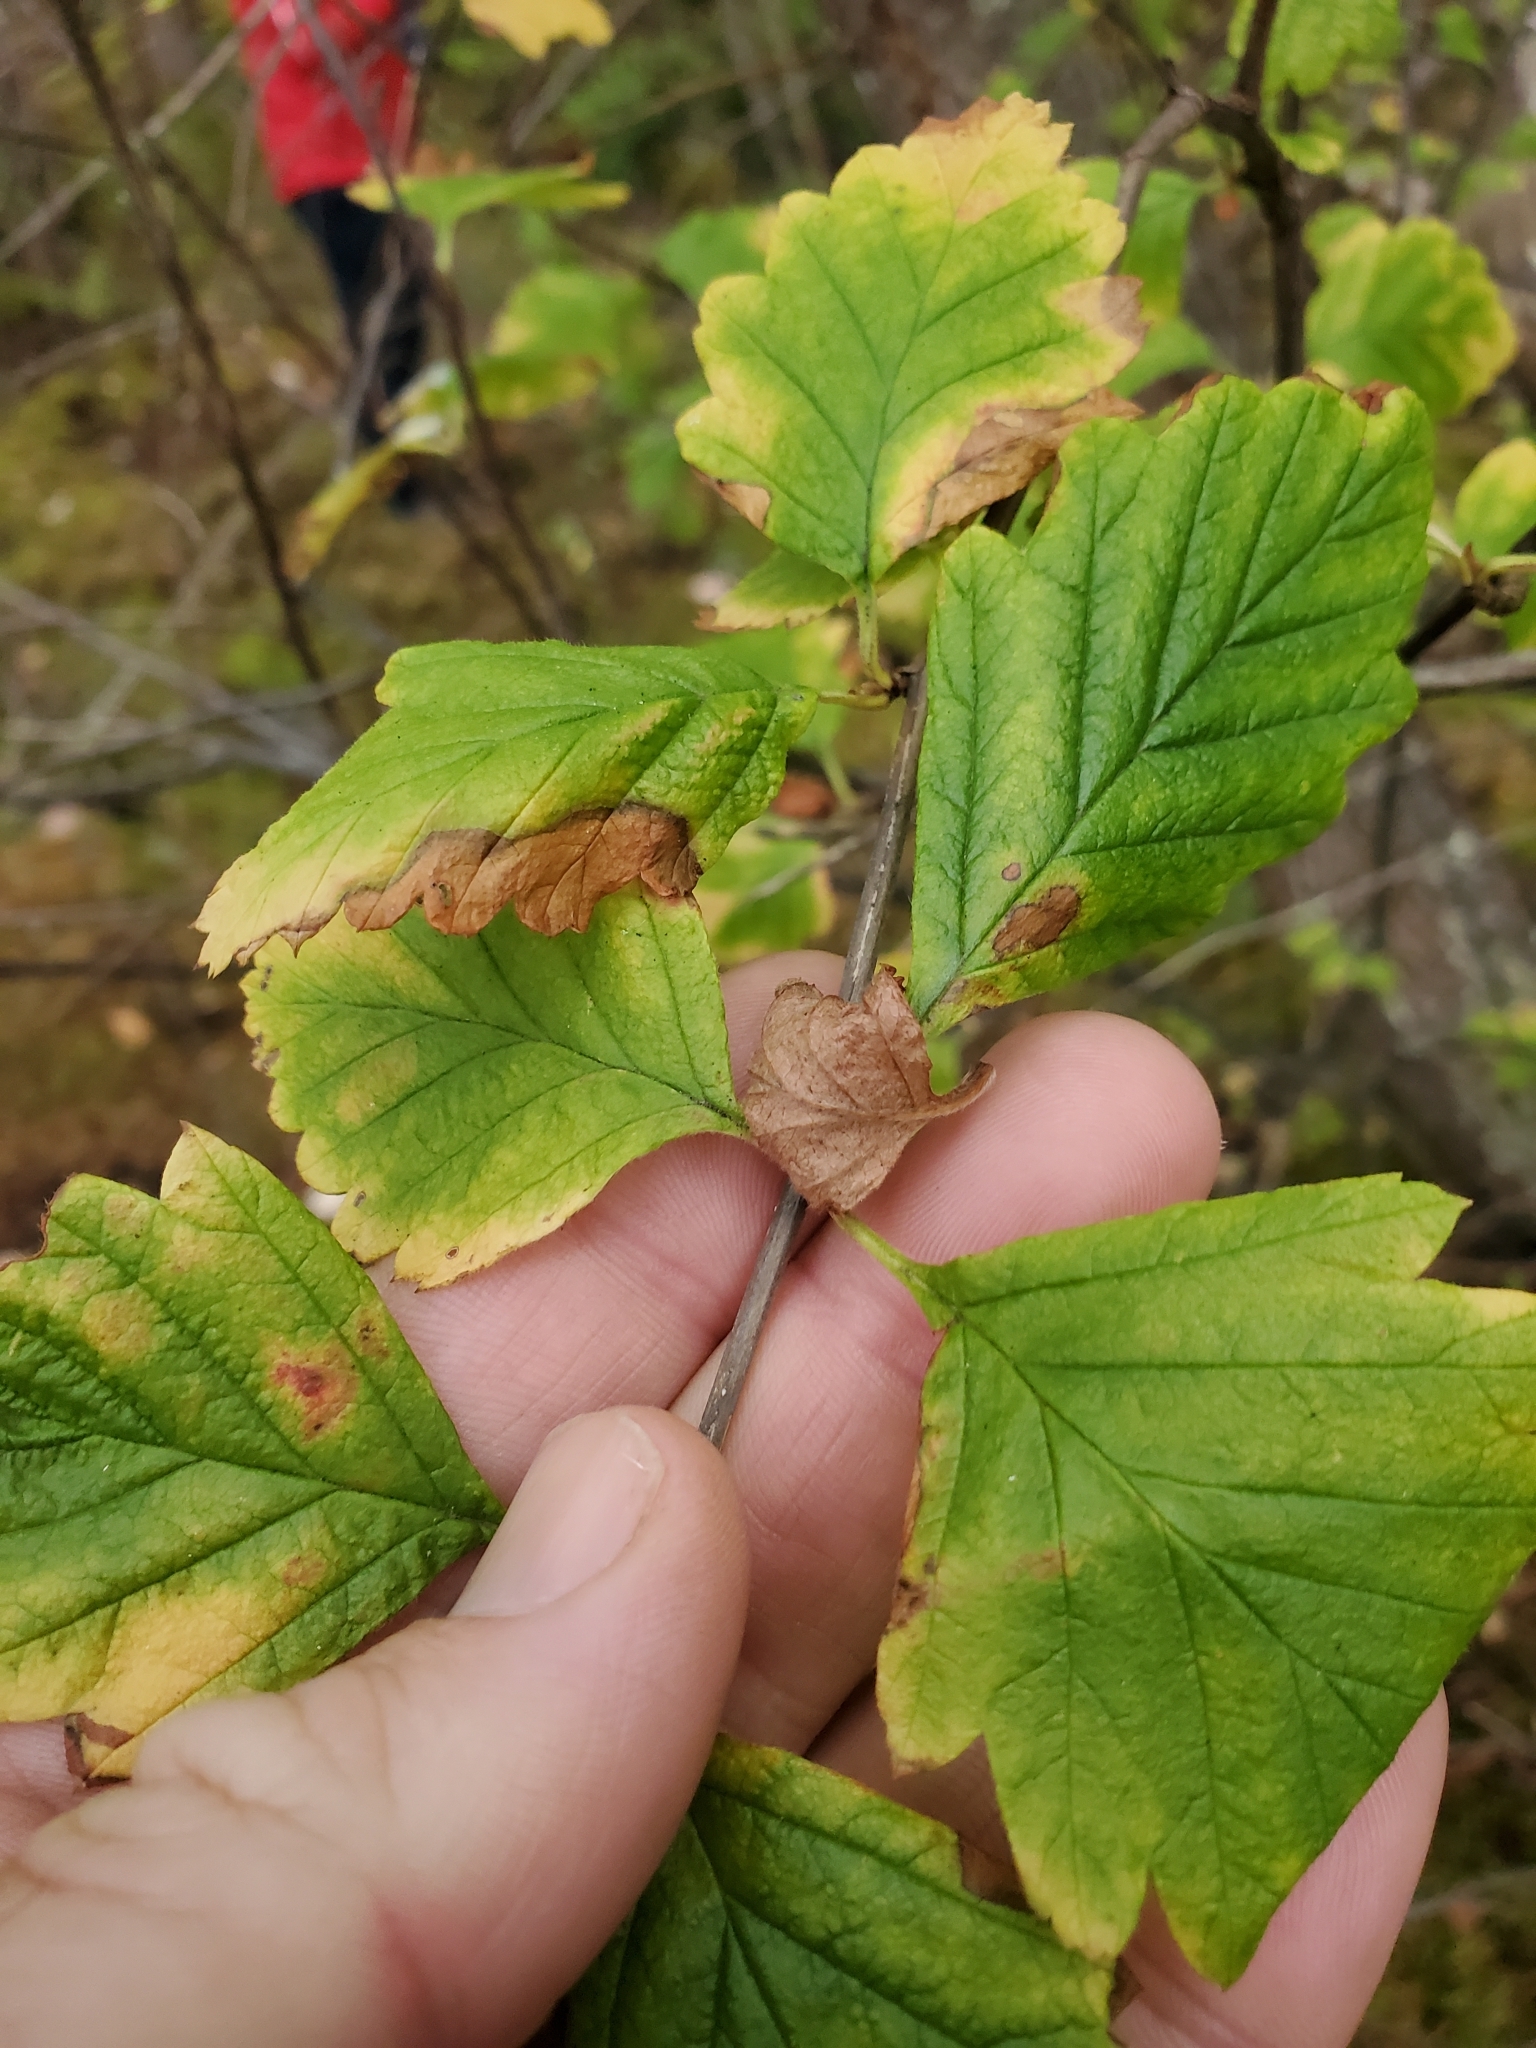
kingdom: Plantae
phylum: Tracheophyta
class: Magnoliopsida
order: Rosales
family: Rosaceae
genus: Holodiscus
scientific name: Holodiscus discolor
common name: Oceanspray
